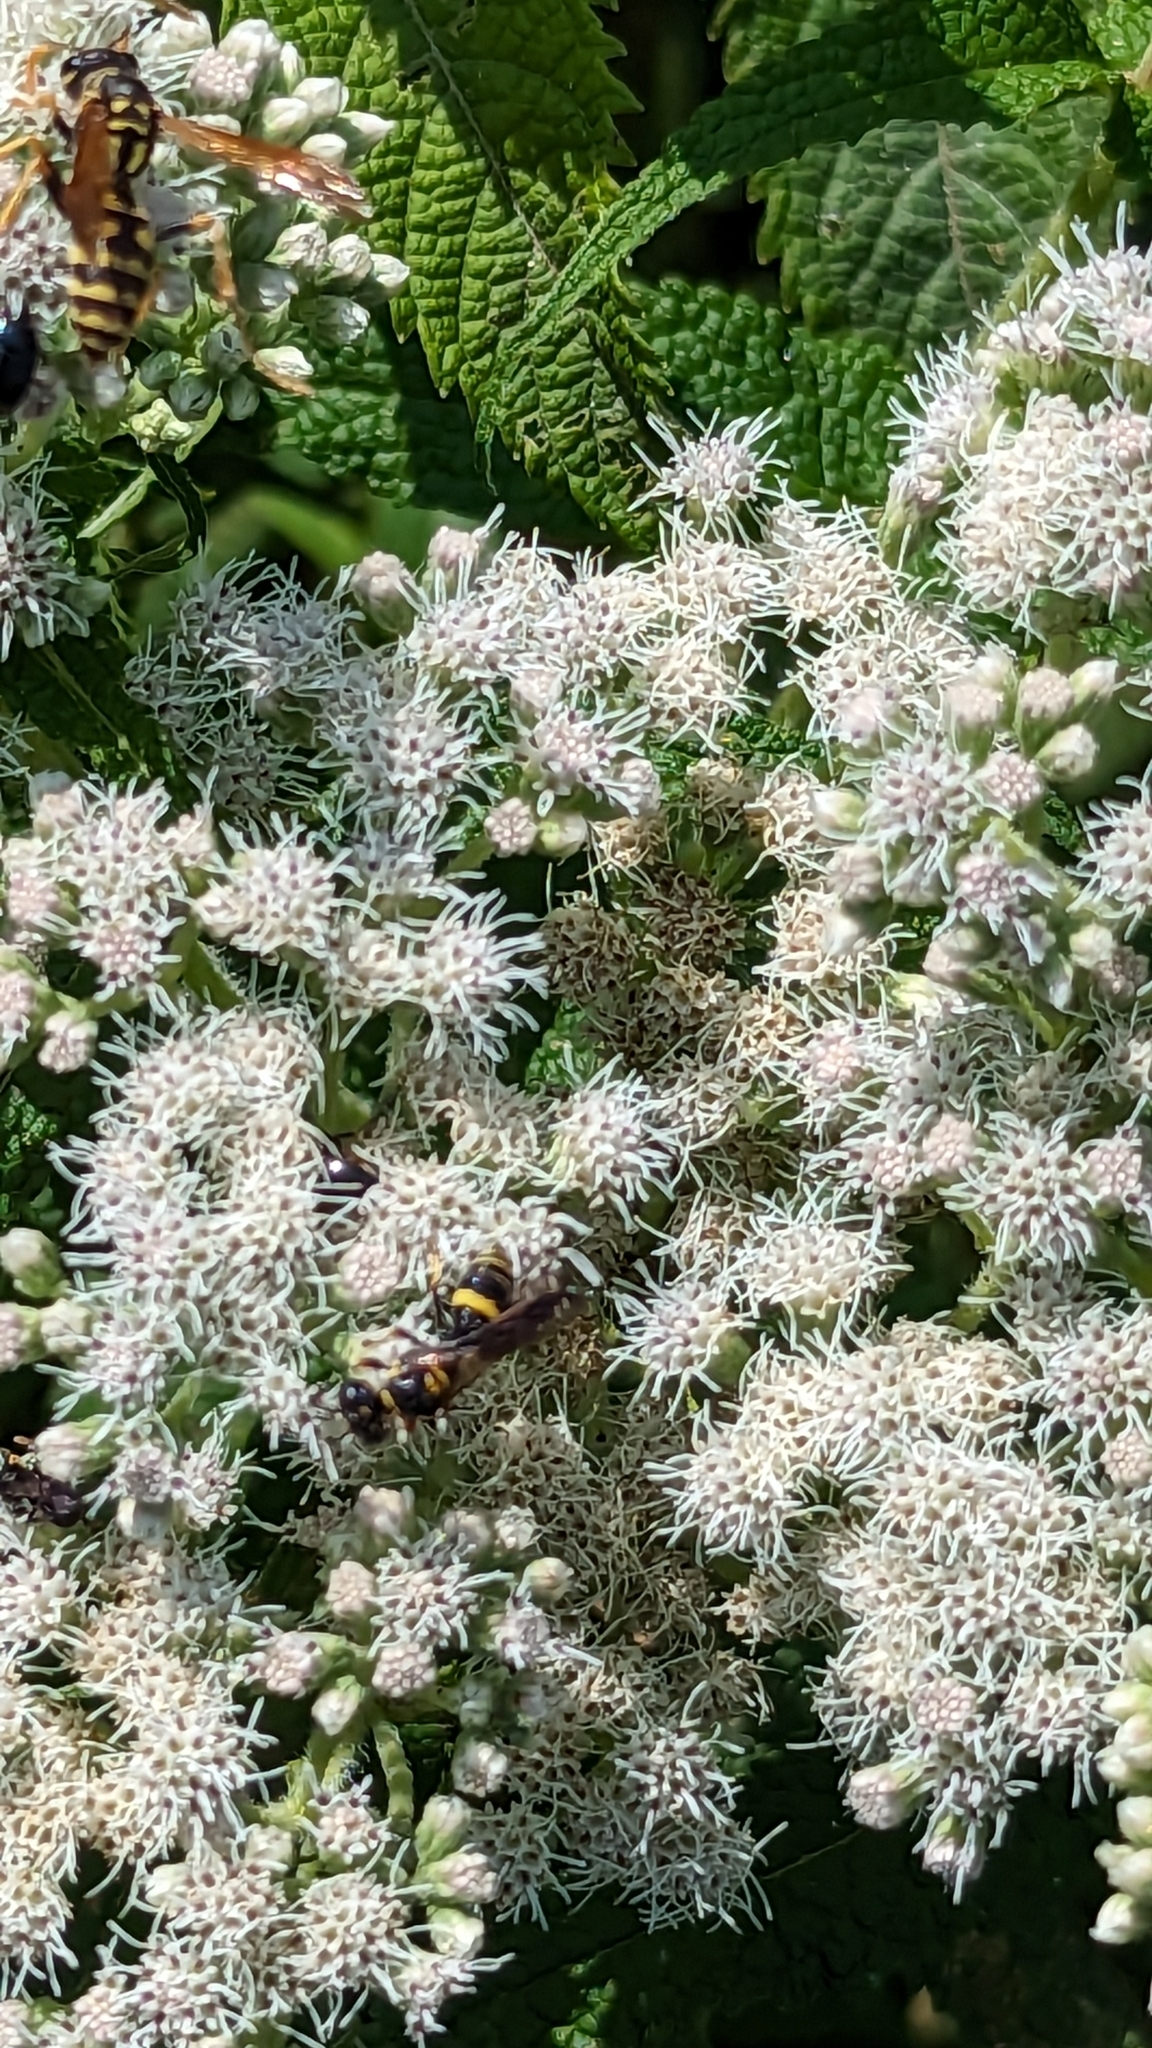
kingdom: Animalia
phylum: Arthropoda
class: Insecta
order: Hymenoptera
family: Crabronidae
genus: Philanthus
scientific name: Philanthus gibbosus
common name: Humped beewolf
